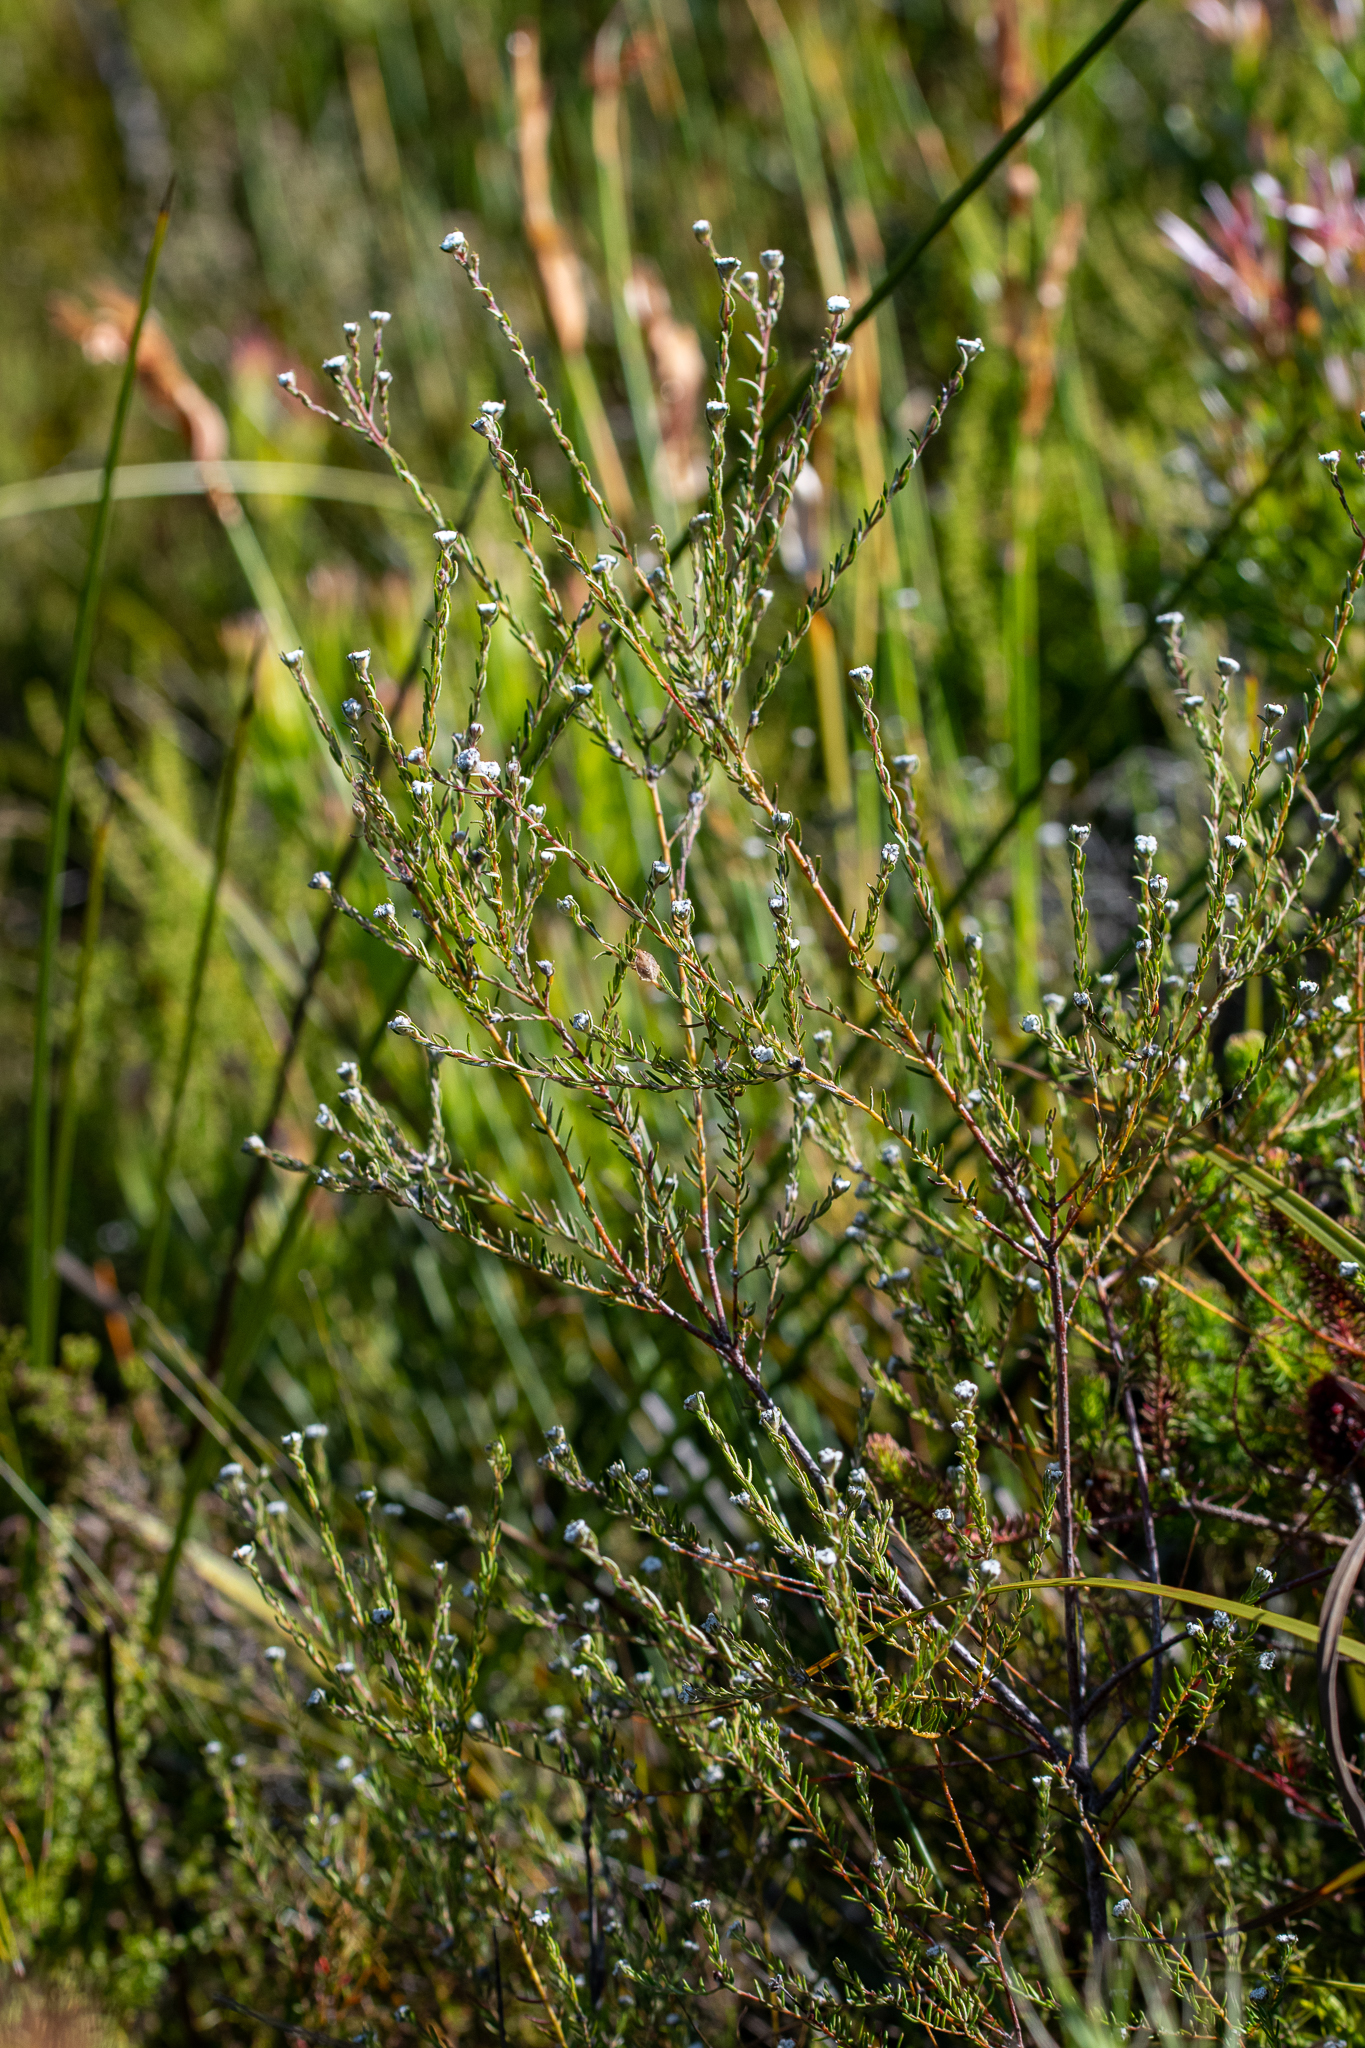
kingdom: Plantae
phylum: Tracheophyta
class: Magnoliopsida
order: Rosales
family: Rhamnaceae
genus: Phylica
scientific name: Phylica disticha
